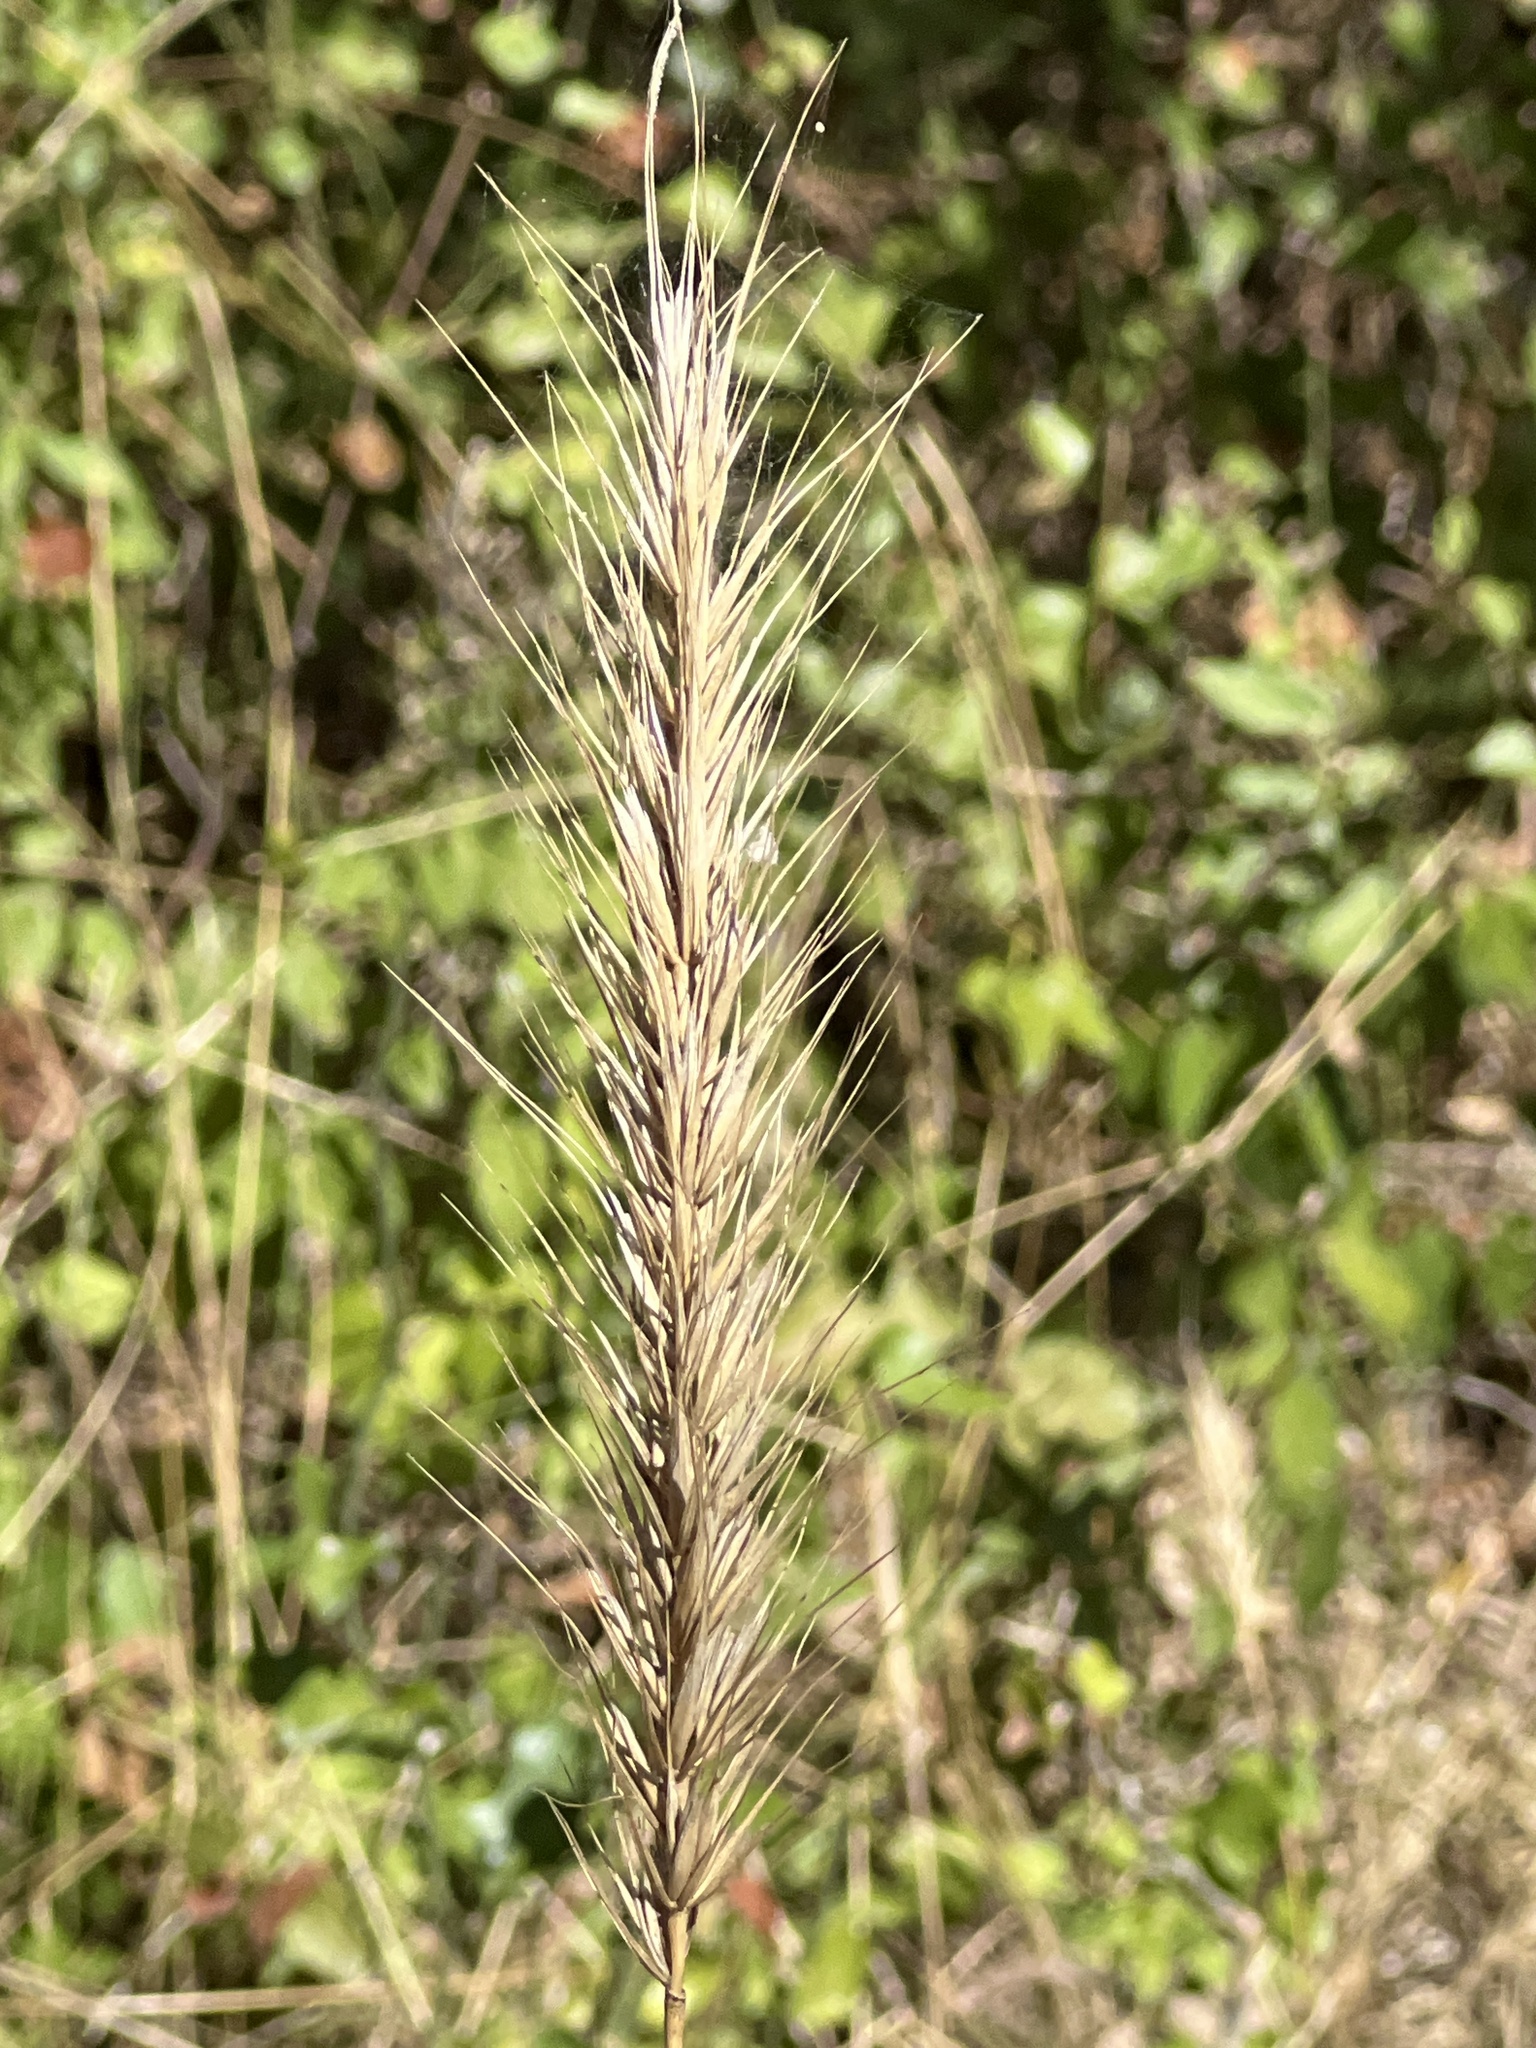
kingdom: Plantae
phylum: Tracheophyta
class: Liliopsida
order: Poales
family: Poaceae
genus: Elymus
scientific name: Elymus canadensis
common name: Canada wild rye
